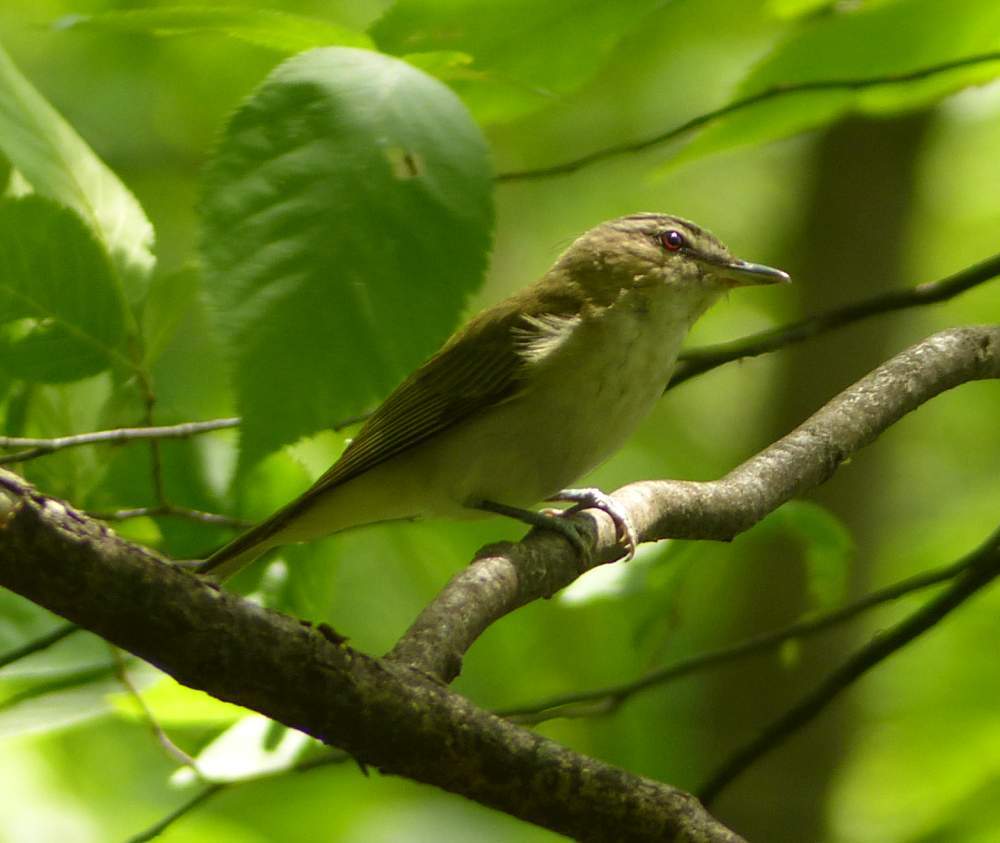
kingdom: Animalia
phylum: Chordata
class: Aves
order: Passeriformes
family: Vireonidae
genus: Vireo
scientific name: Vireo olivaceus
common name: Red-eyed vireo
